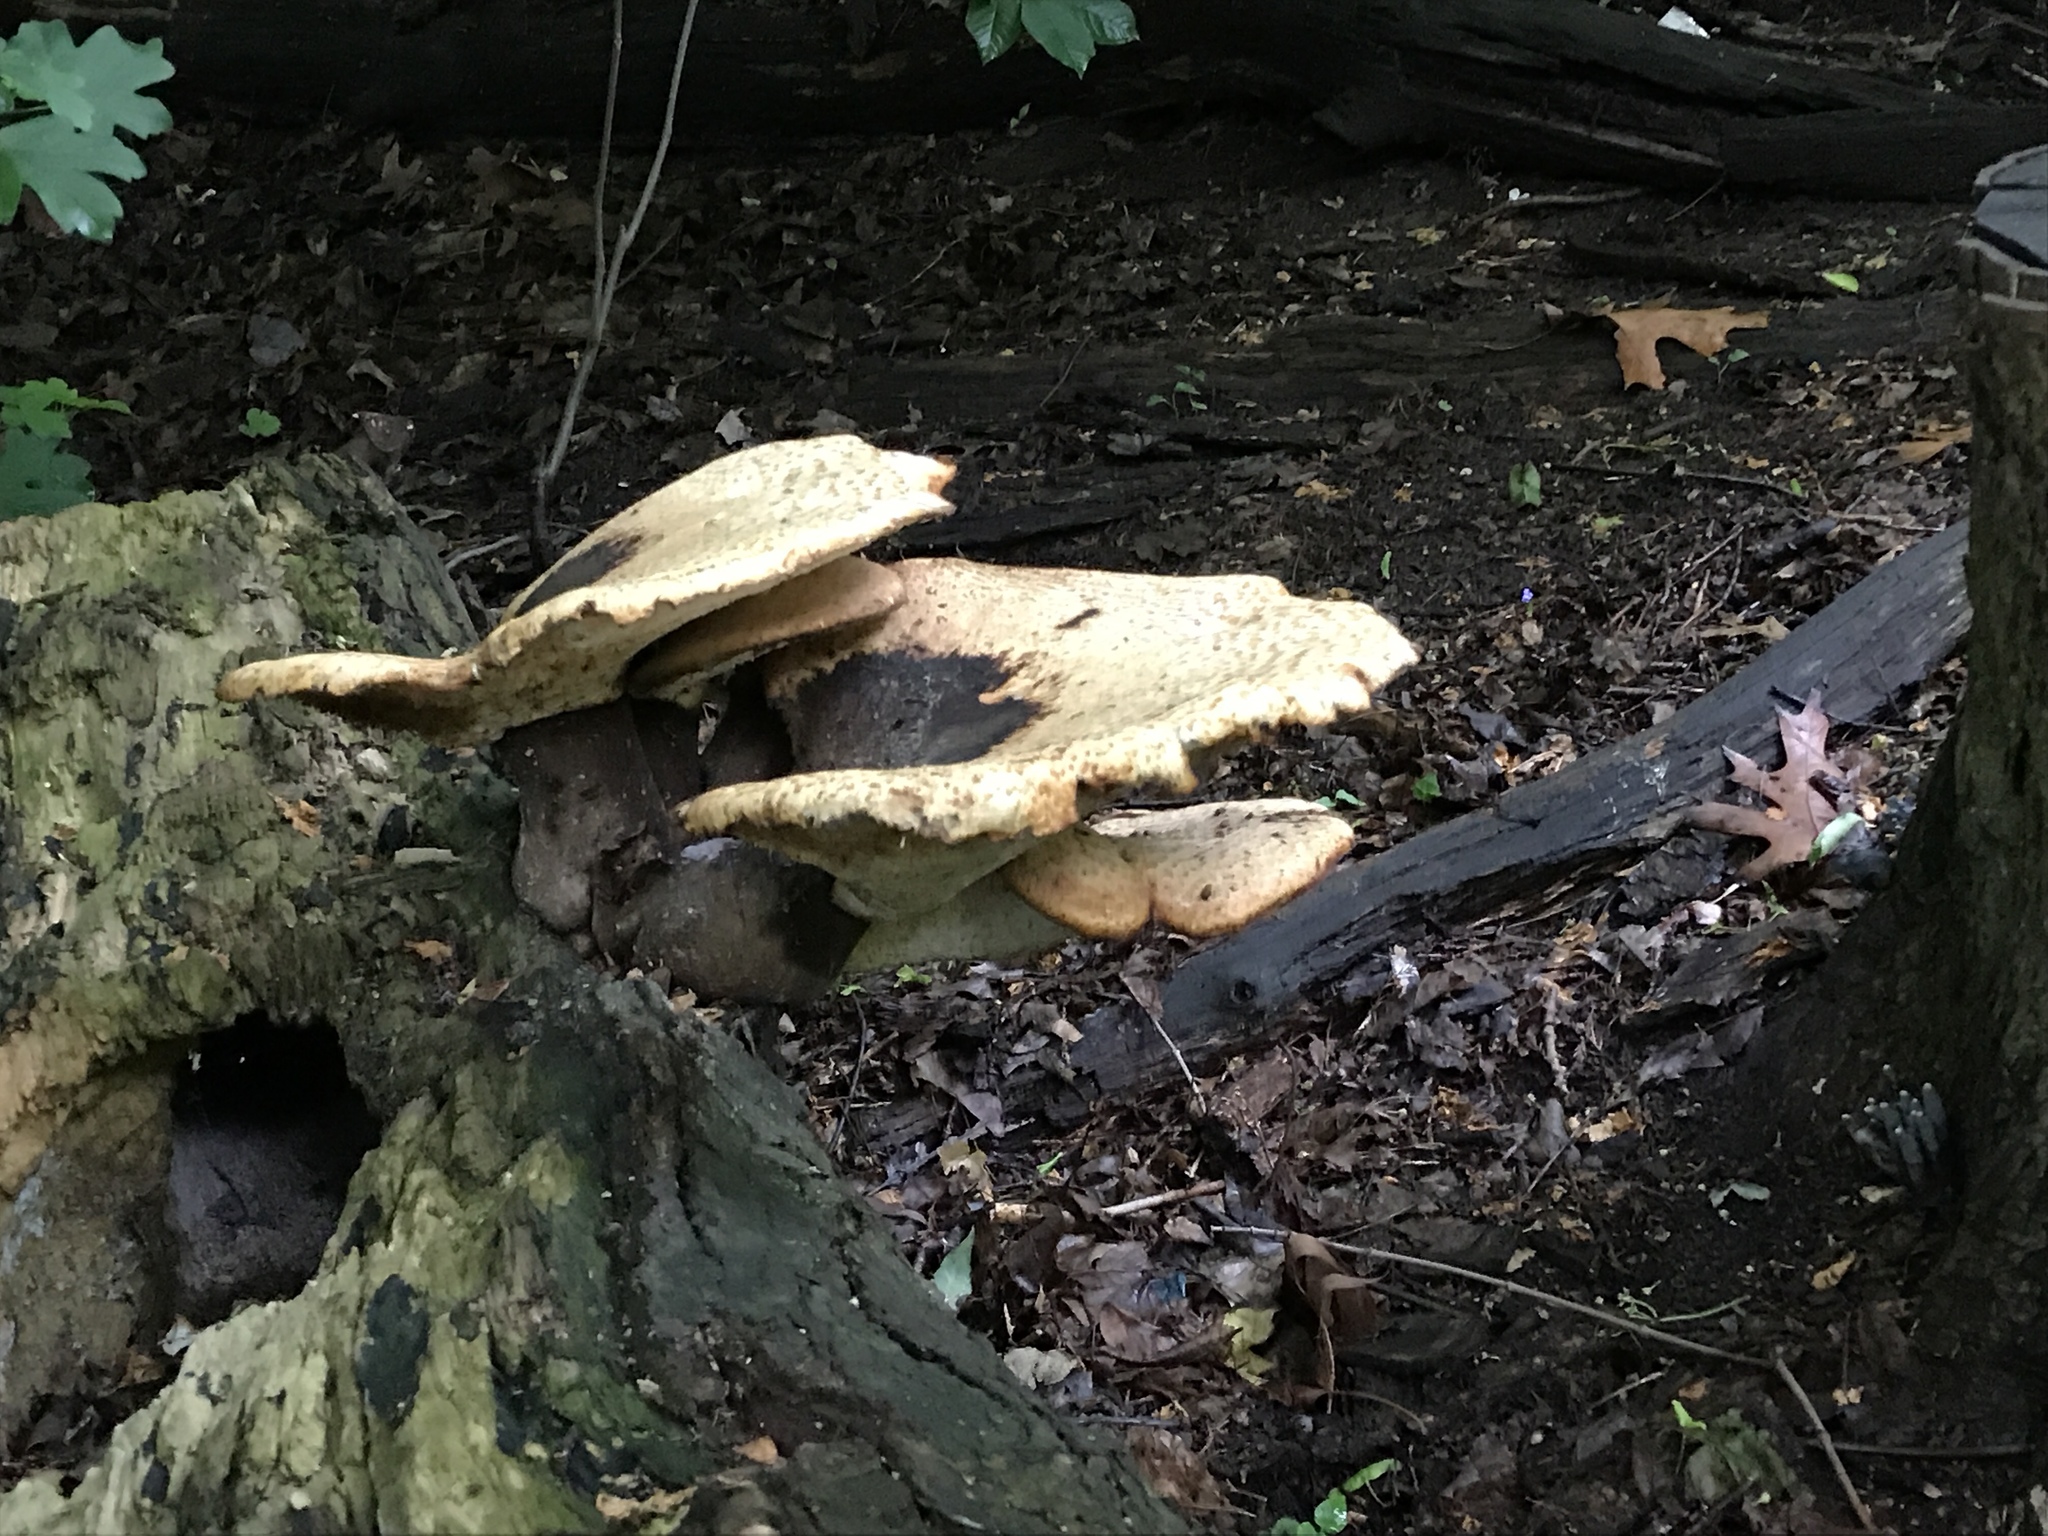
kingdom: Fungi
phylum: Basidiomycota
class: Agaricomycetes
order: Polyporales
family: Polyporaceae
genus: Cerioporus
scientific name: Cerioporus squamosus
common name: Dryad's saddle
